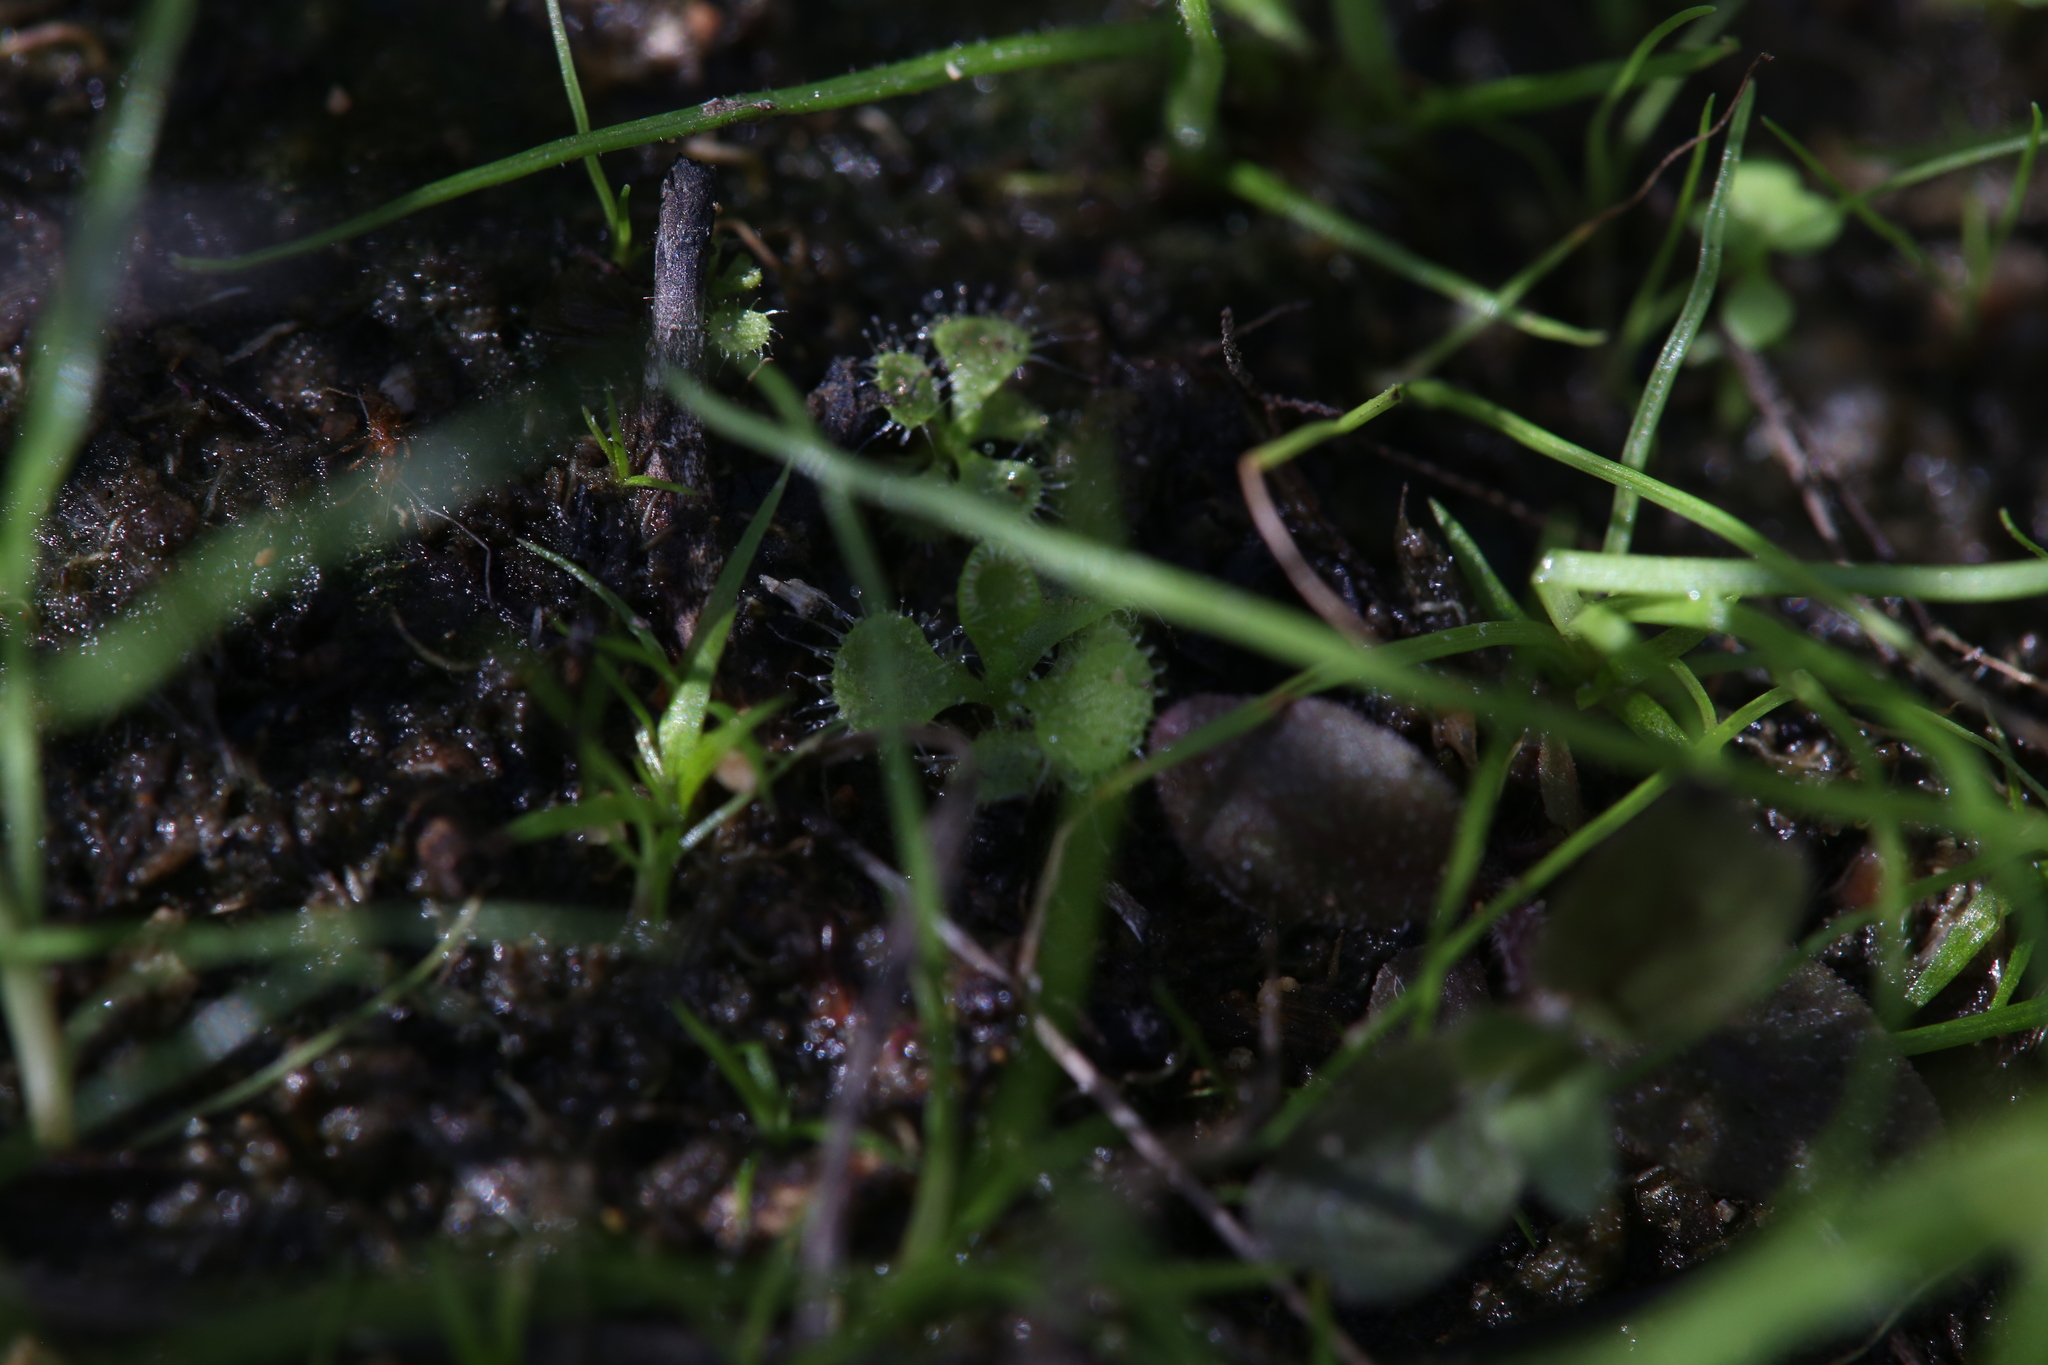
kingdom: Plantae
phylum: Tracheophyta
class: Magnoliopsida
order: Caryophyllales
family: Droseraceae
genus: Drosera
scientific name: Drosera spatulata
